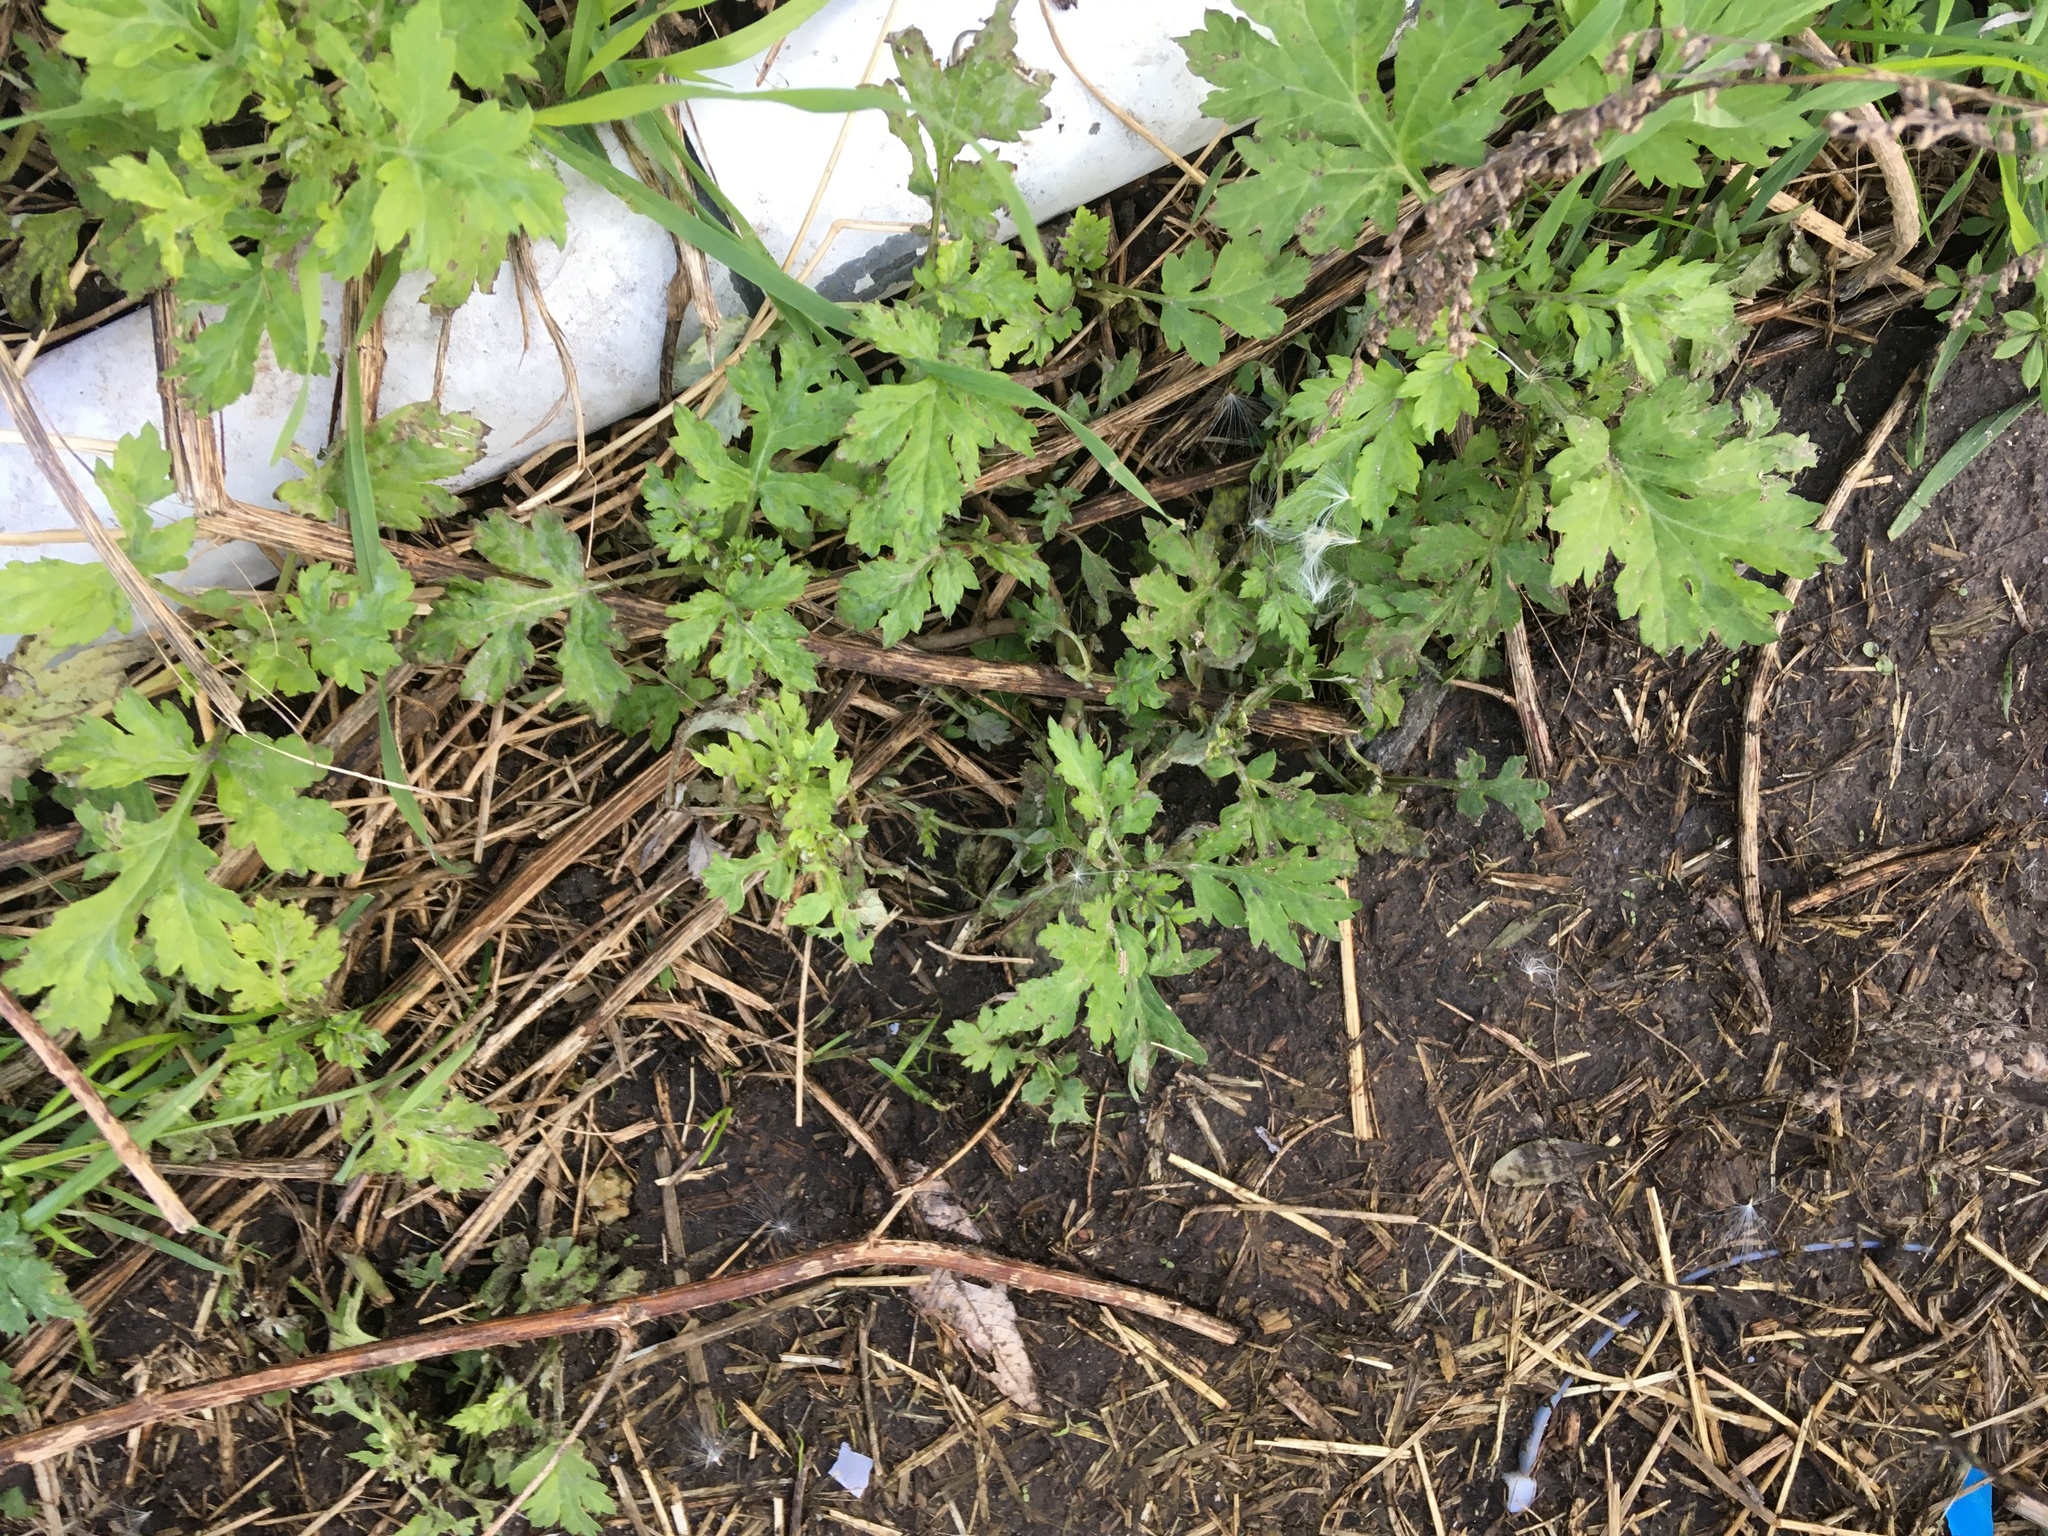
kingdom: Plantae
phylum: Tracheophyta
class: Magnoliopsida
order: Asterales
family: Asteraceae
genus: Artemisia
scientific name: Artemisia vulgaris
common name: Mugwort
